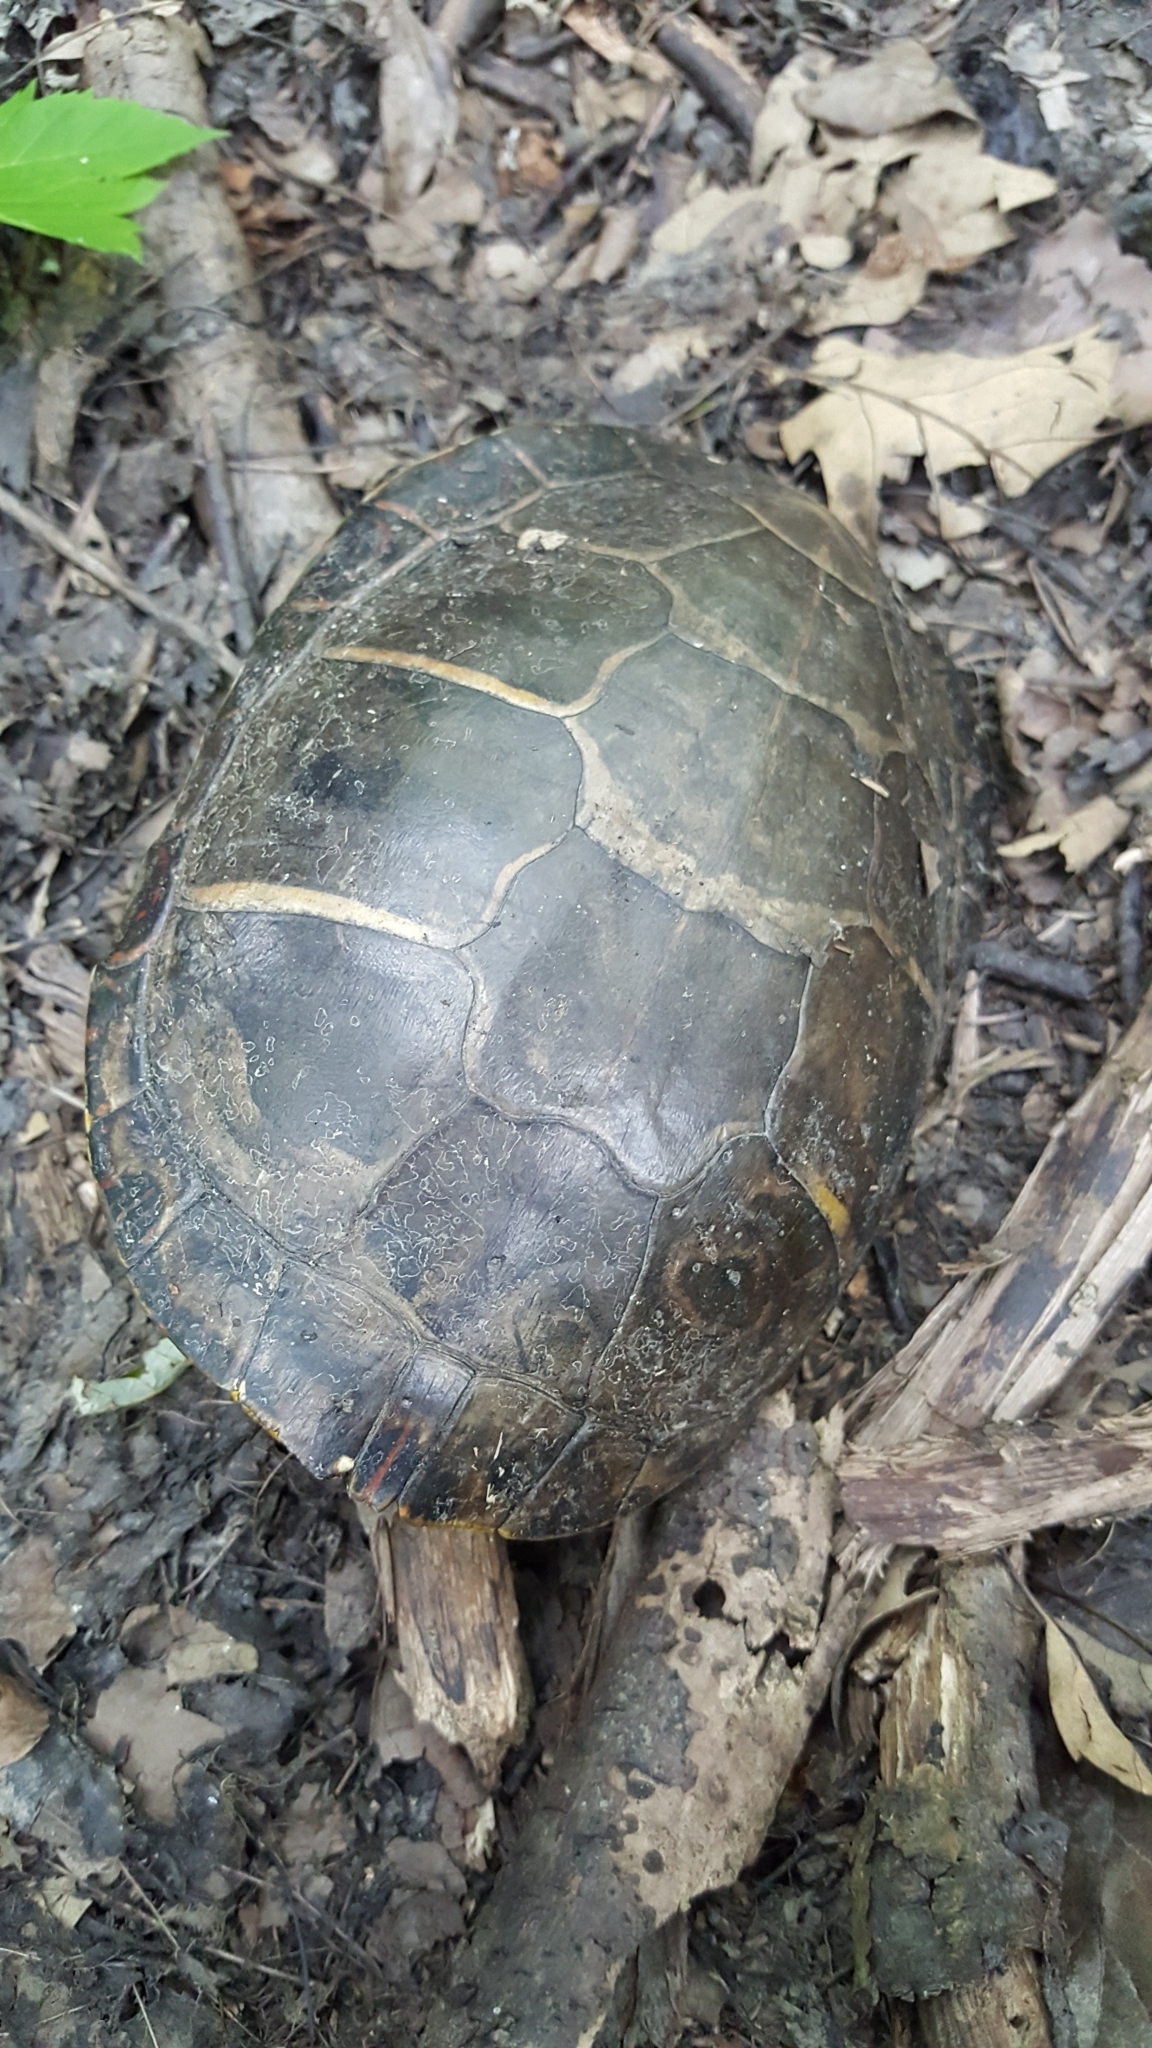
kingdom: Animalia
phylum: Chordata
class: Testudines
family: Emydidae
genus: Chrysemys
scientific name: Chrysemys picta
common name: Painted turtle
